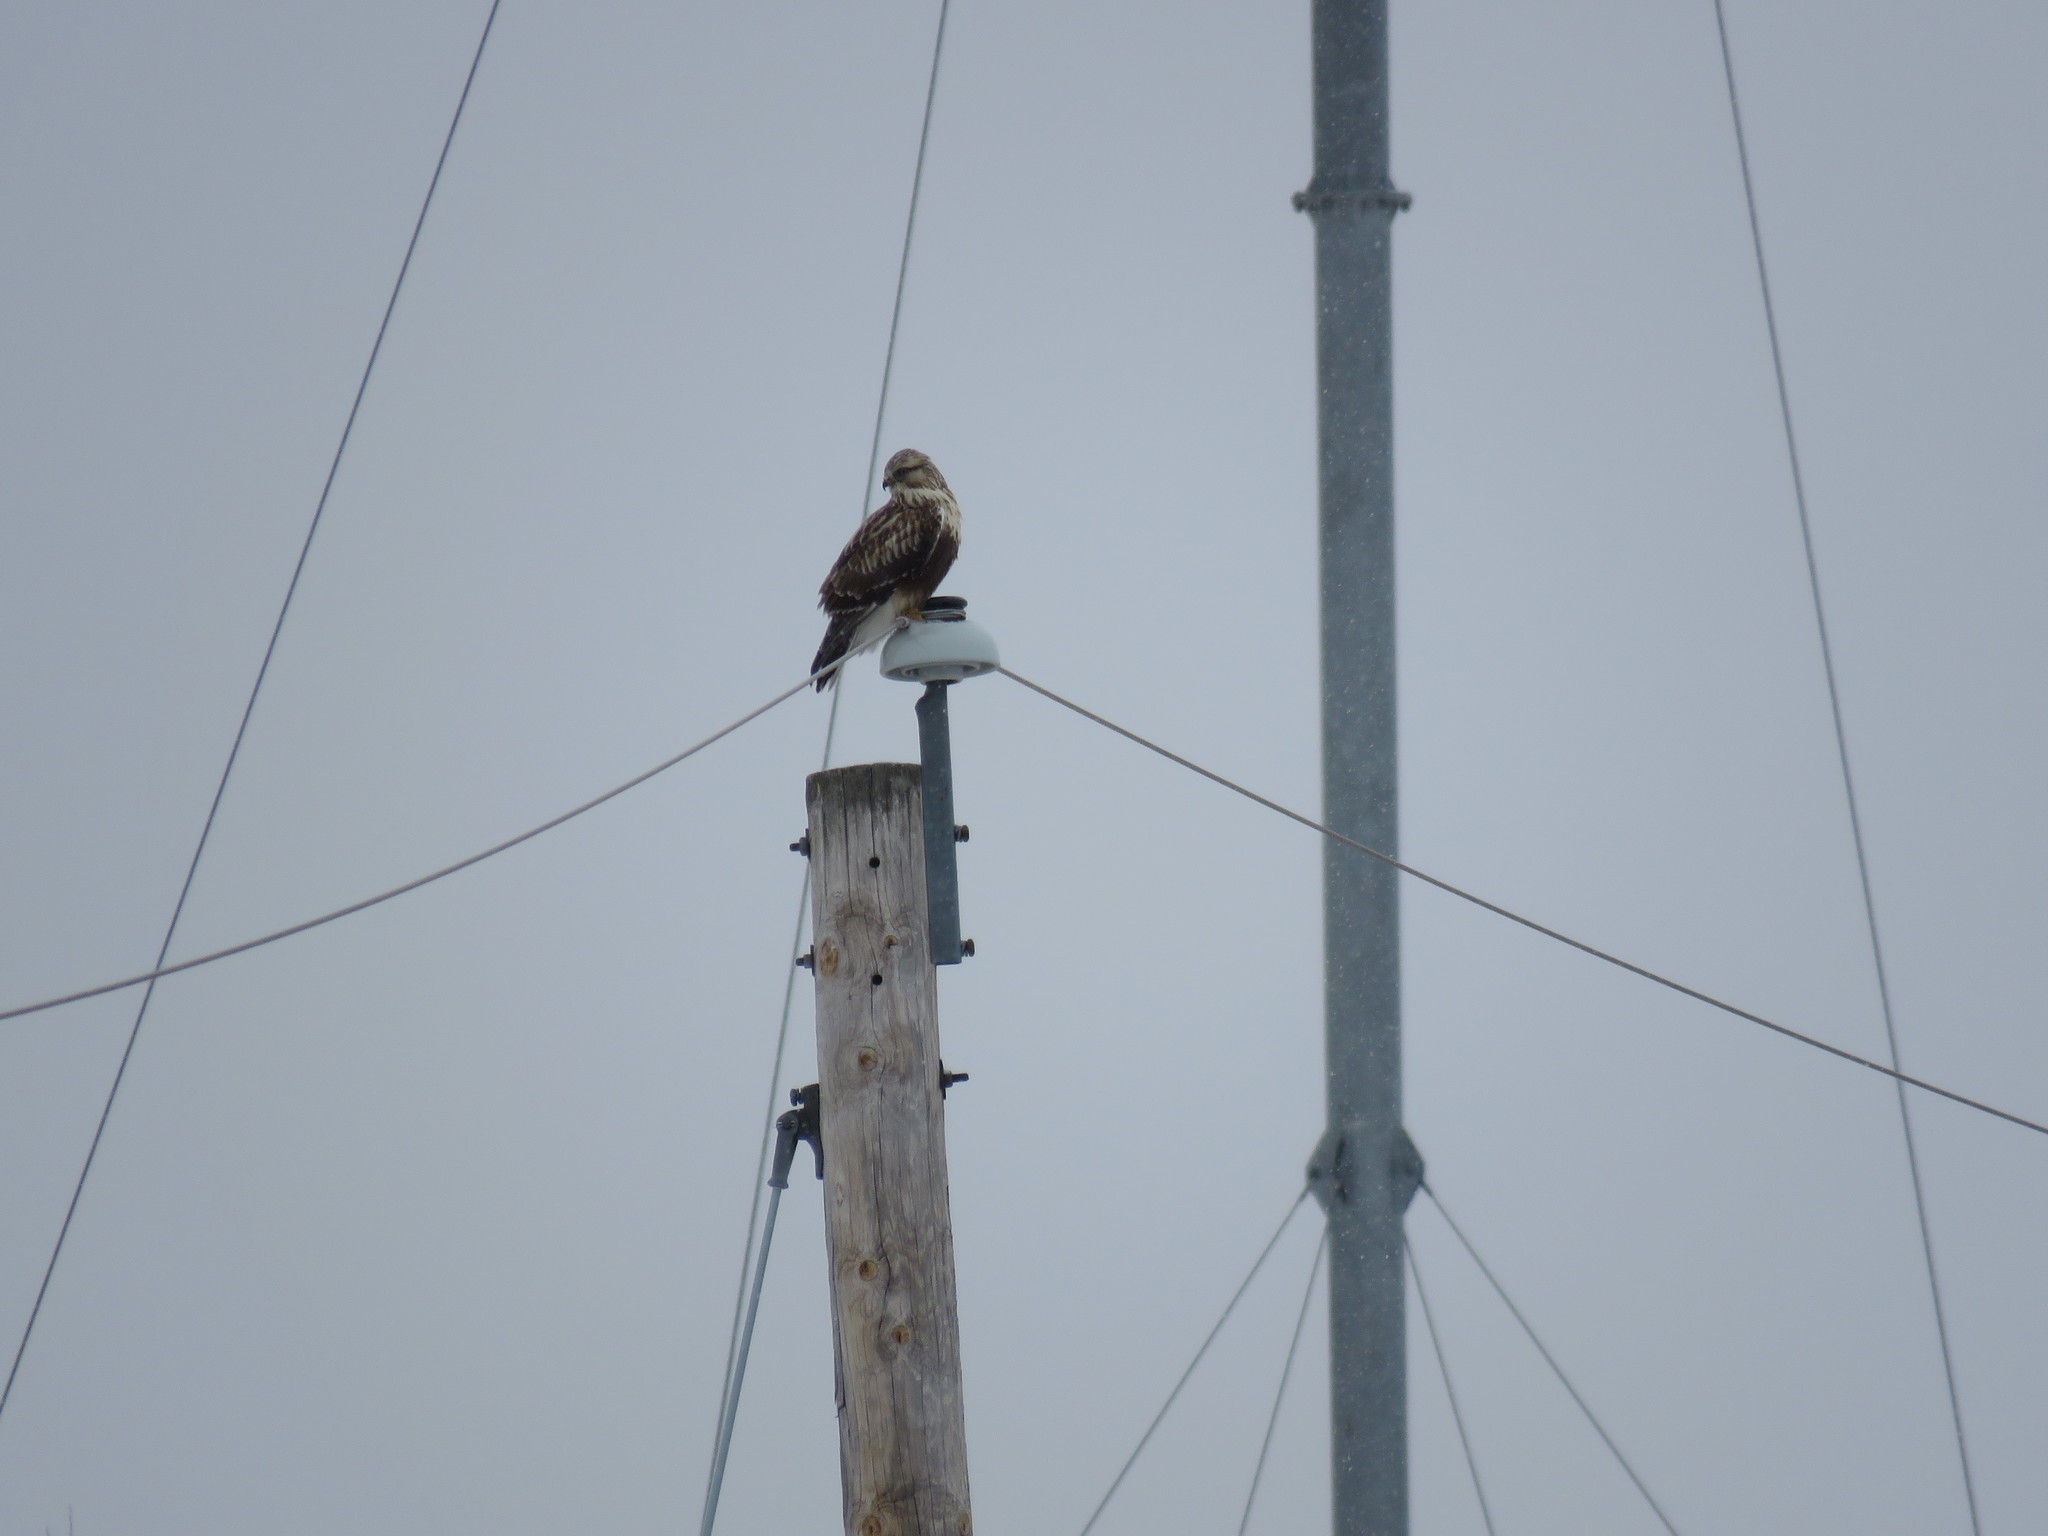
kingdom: Animalia
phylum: Chordata
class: Aves
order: Accipitriformes
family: Accipitridae
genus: Buteo
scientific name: Buteo lagopus
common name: Rough-legged buzzard
